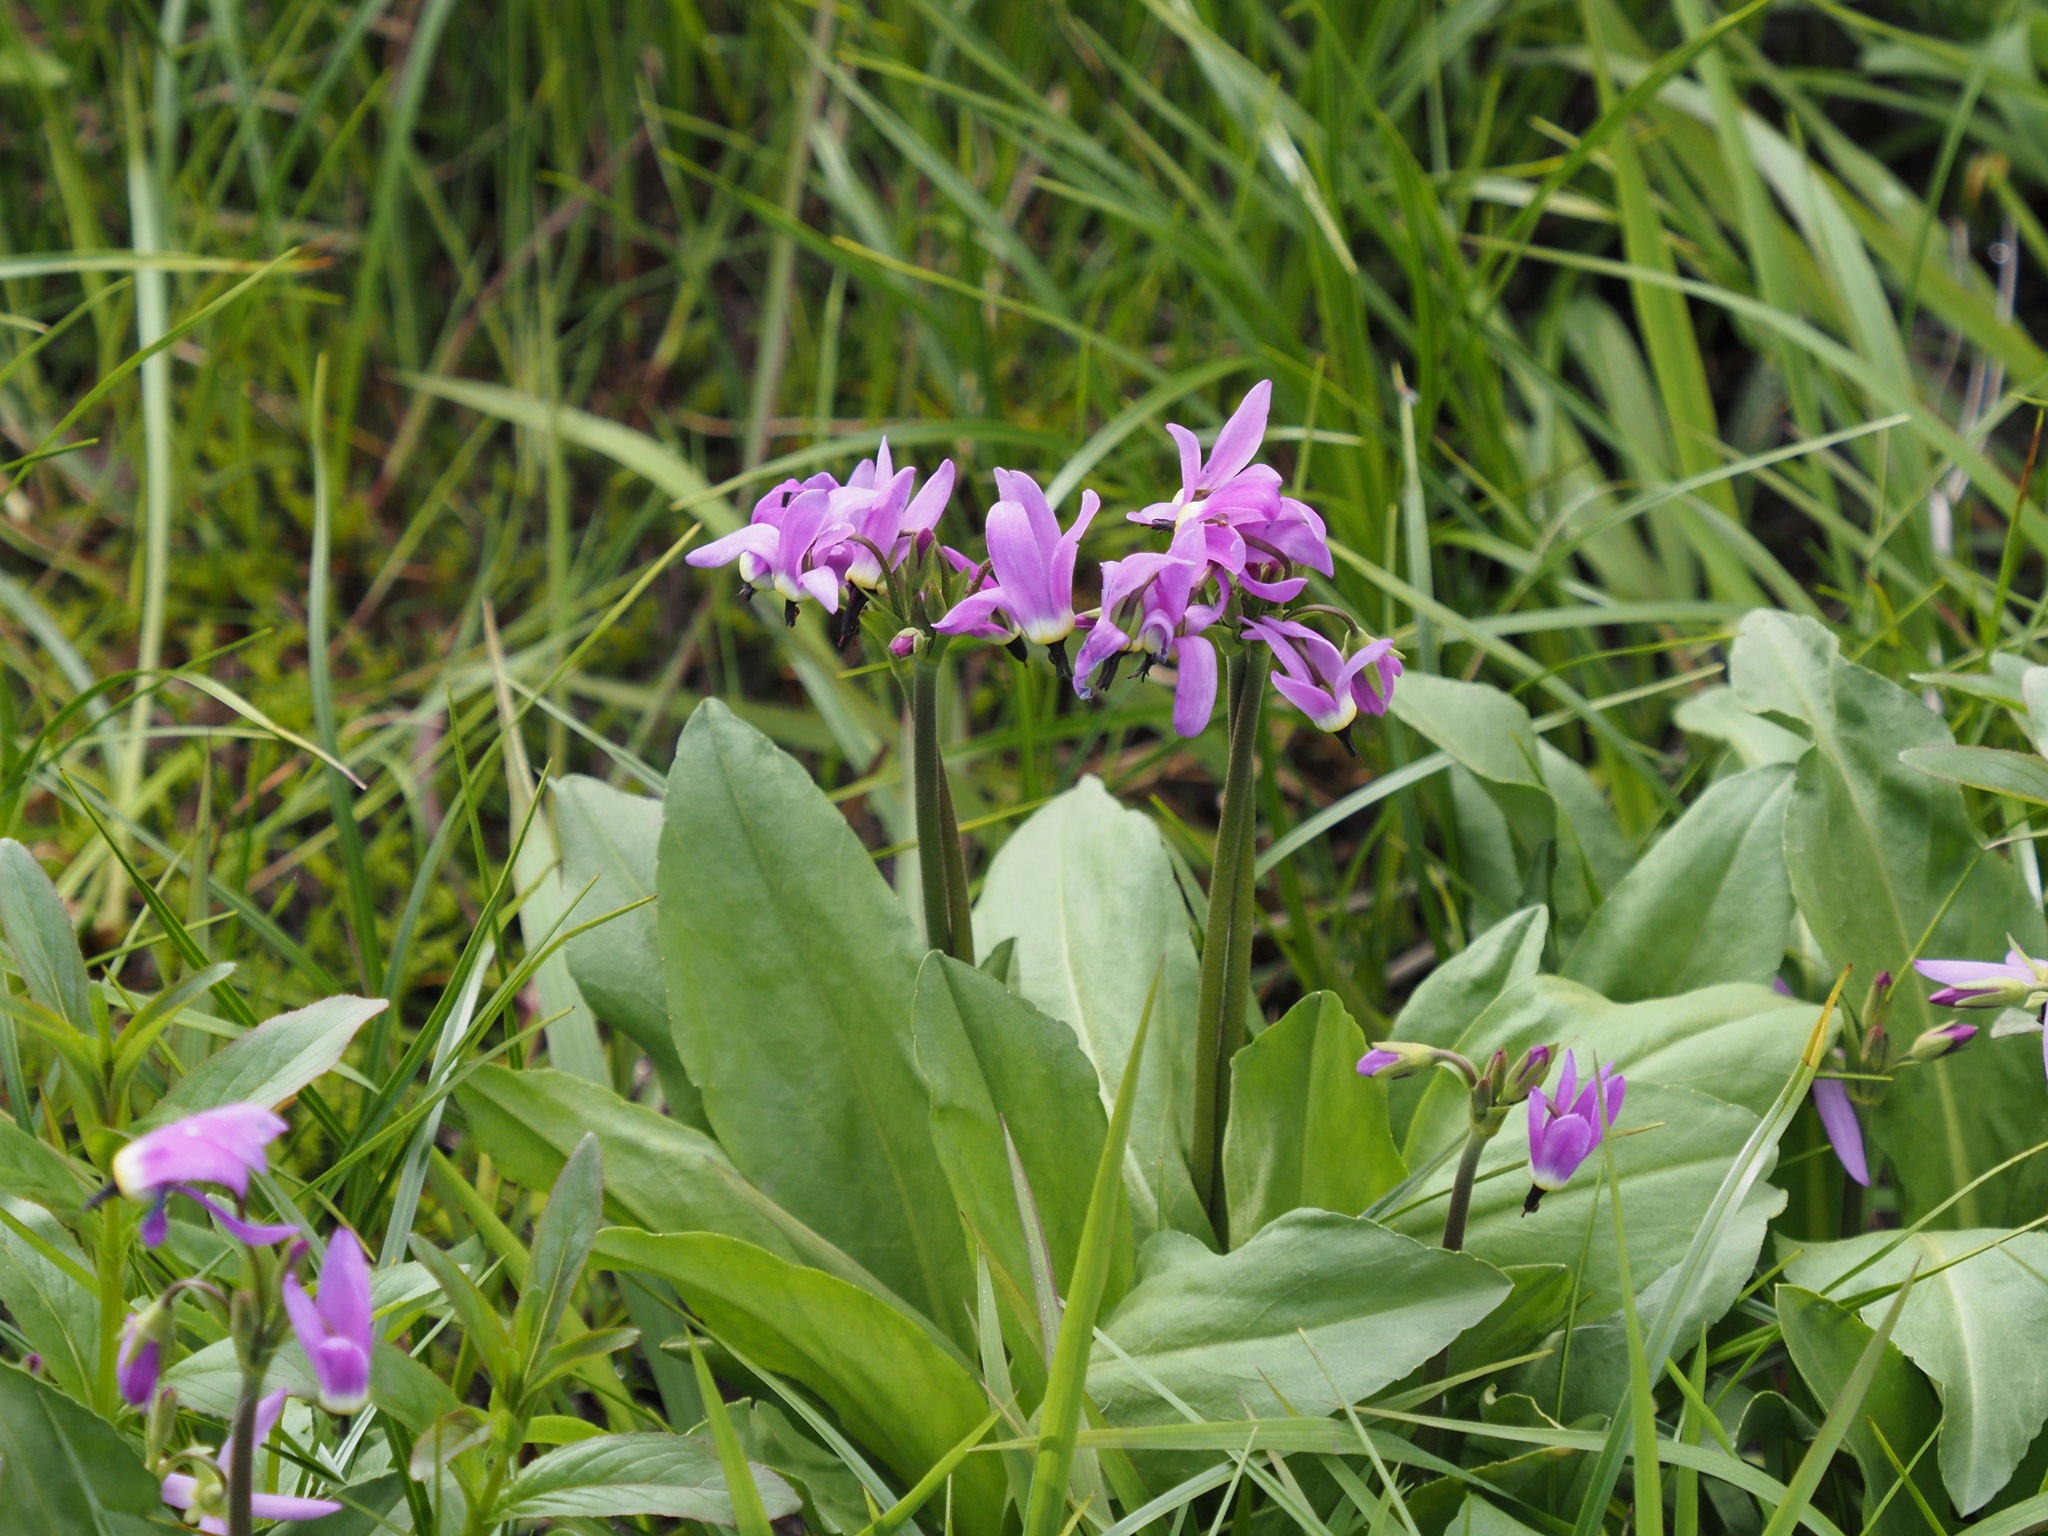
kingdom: Plantae
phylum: Tracheophyta
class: Magnoliopsida
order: Ericales
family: Primulaceae
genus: Dodecatheon
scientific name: Dodecatheon jeffreyanum
